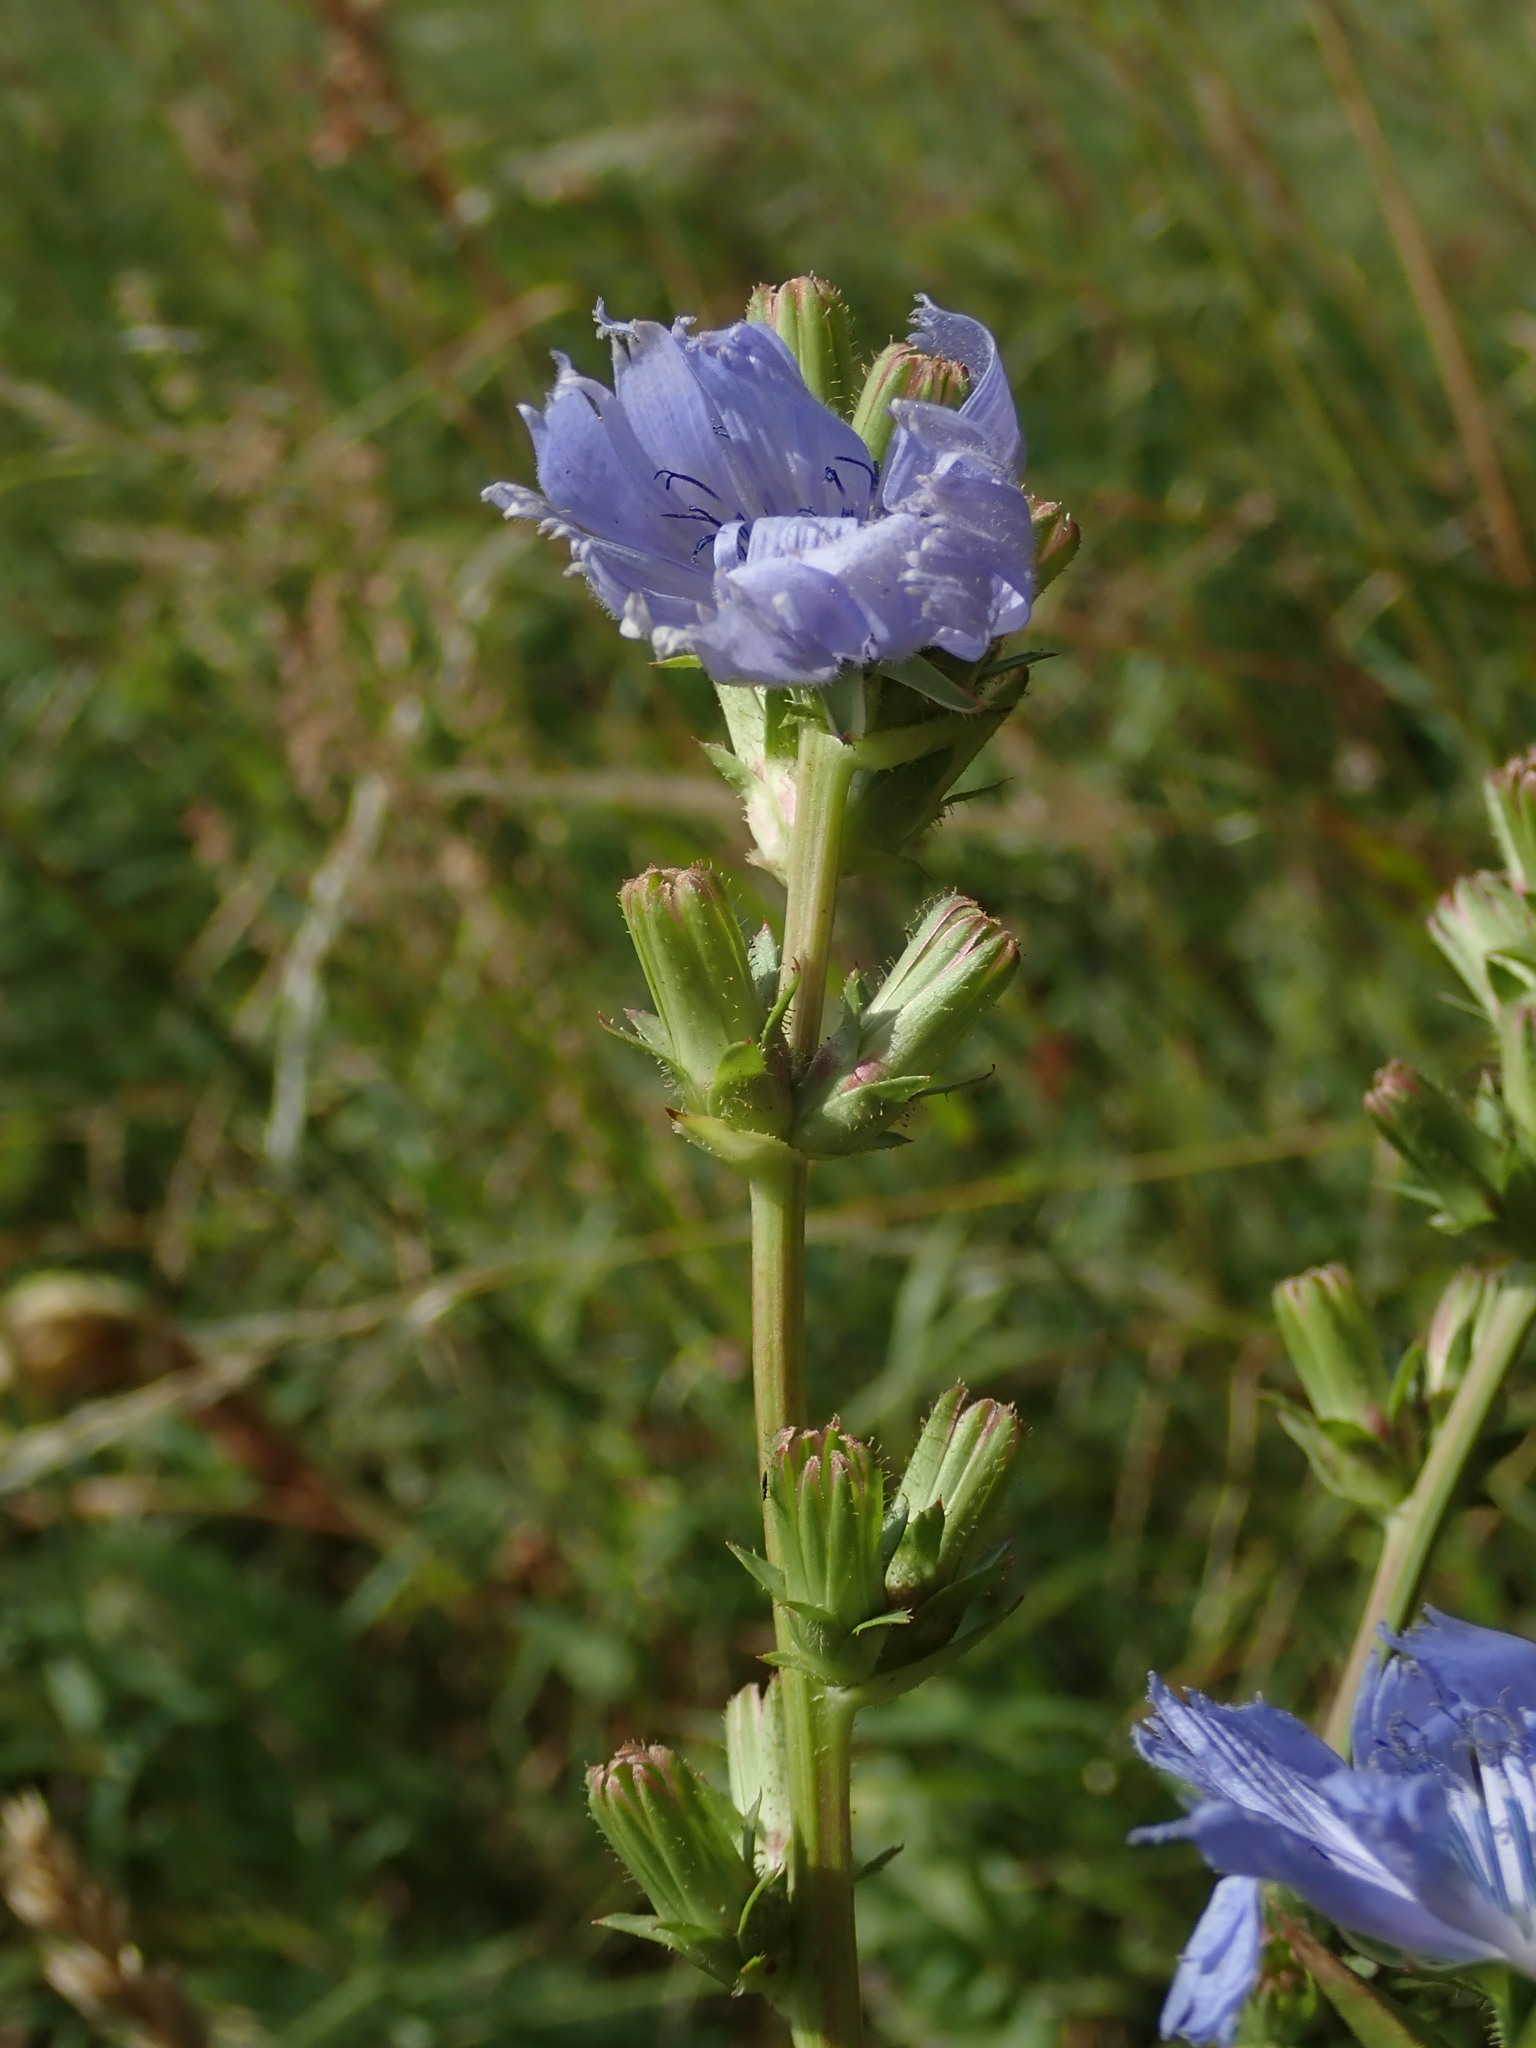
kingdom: Plantae
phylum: Tracheophyta
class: Magnoliopsida
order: Asterales
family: Asteraceae
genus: Cichorium
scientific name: Cichorium intybus
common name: Chicory
